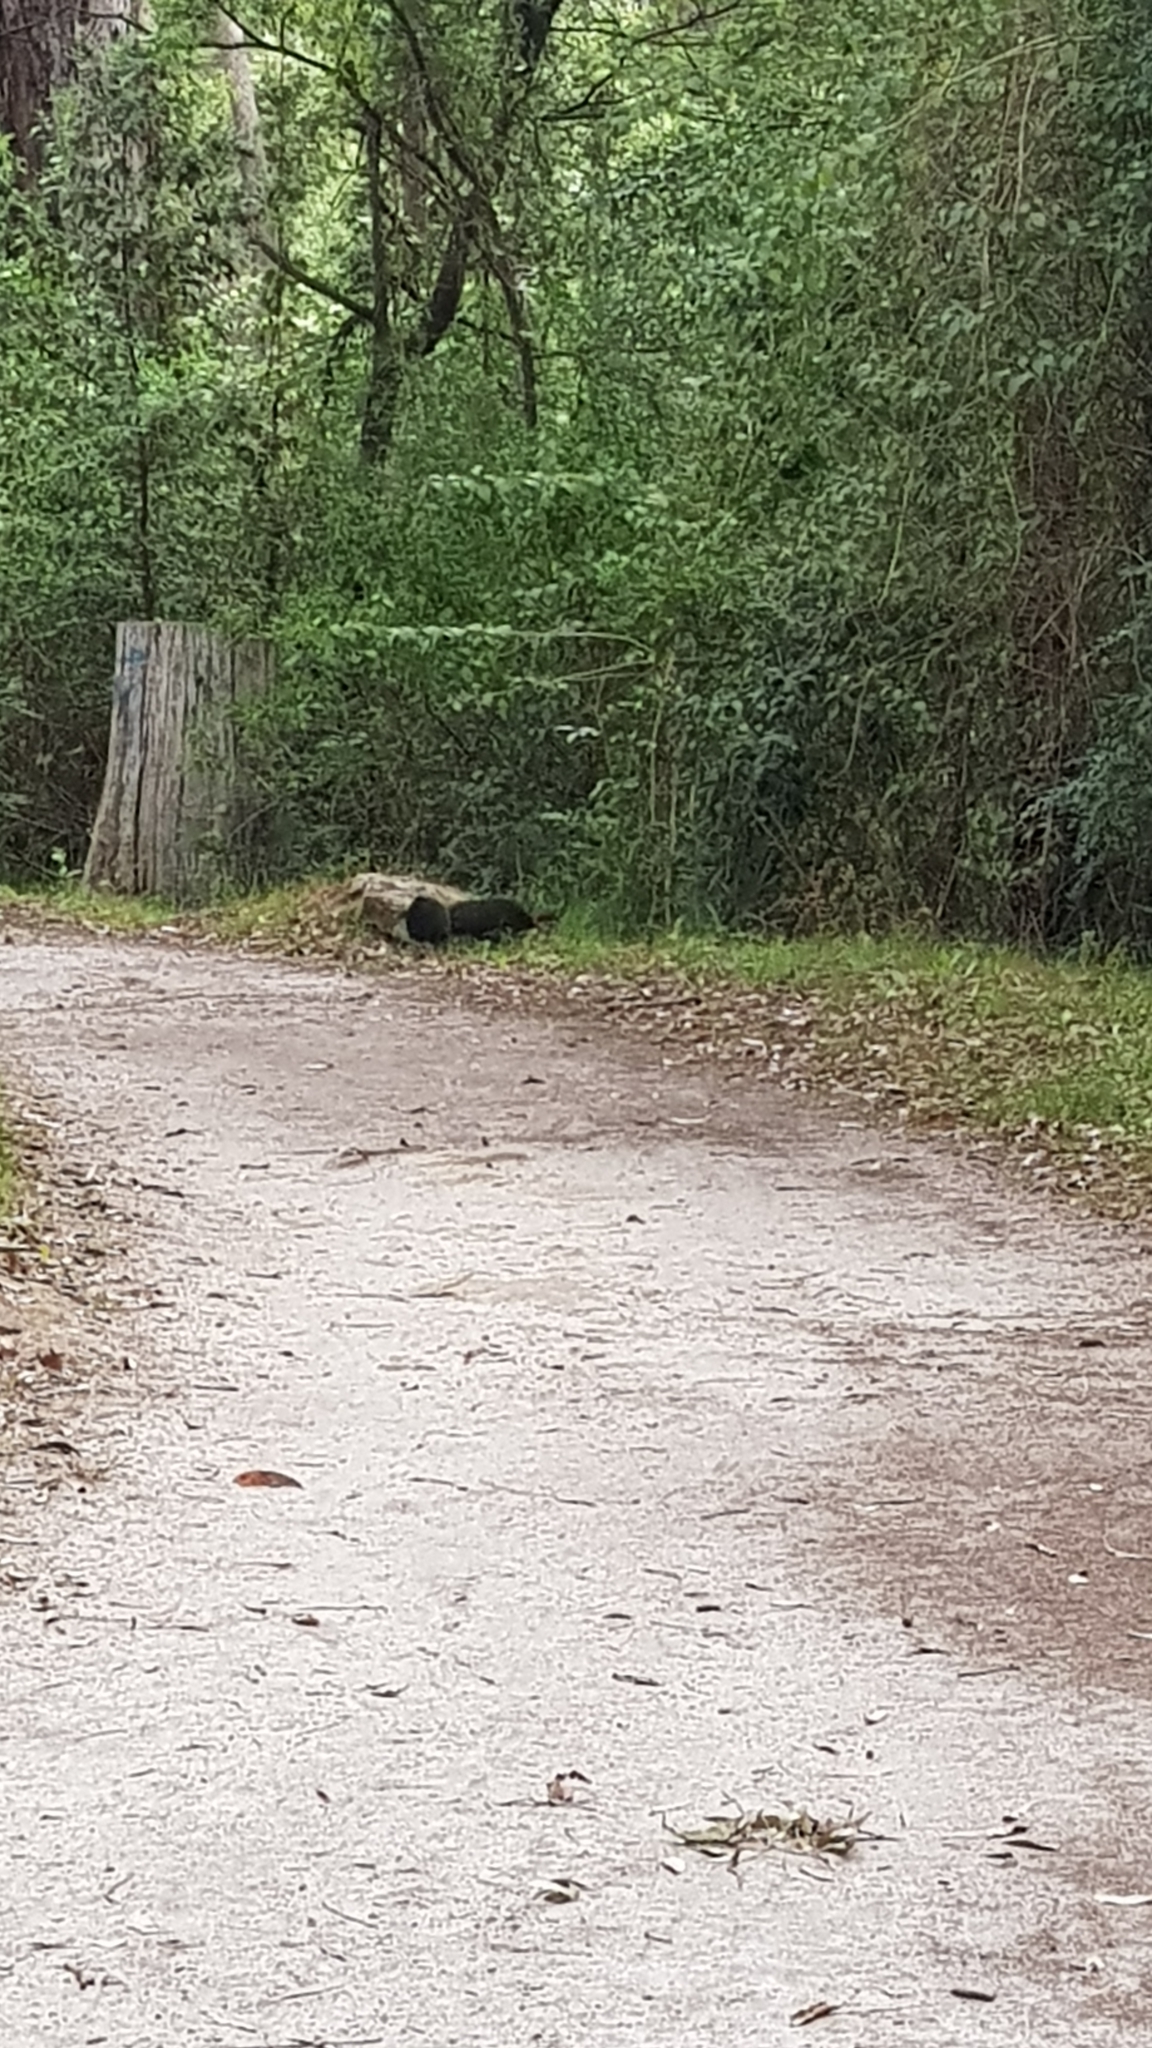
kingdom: Animalia
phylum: Chordata
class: Aves
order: Galliformes
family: Megapodiidae
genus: Alectura
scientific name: Alectura lathami
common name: Australian brushturkey
